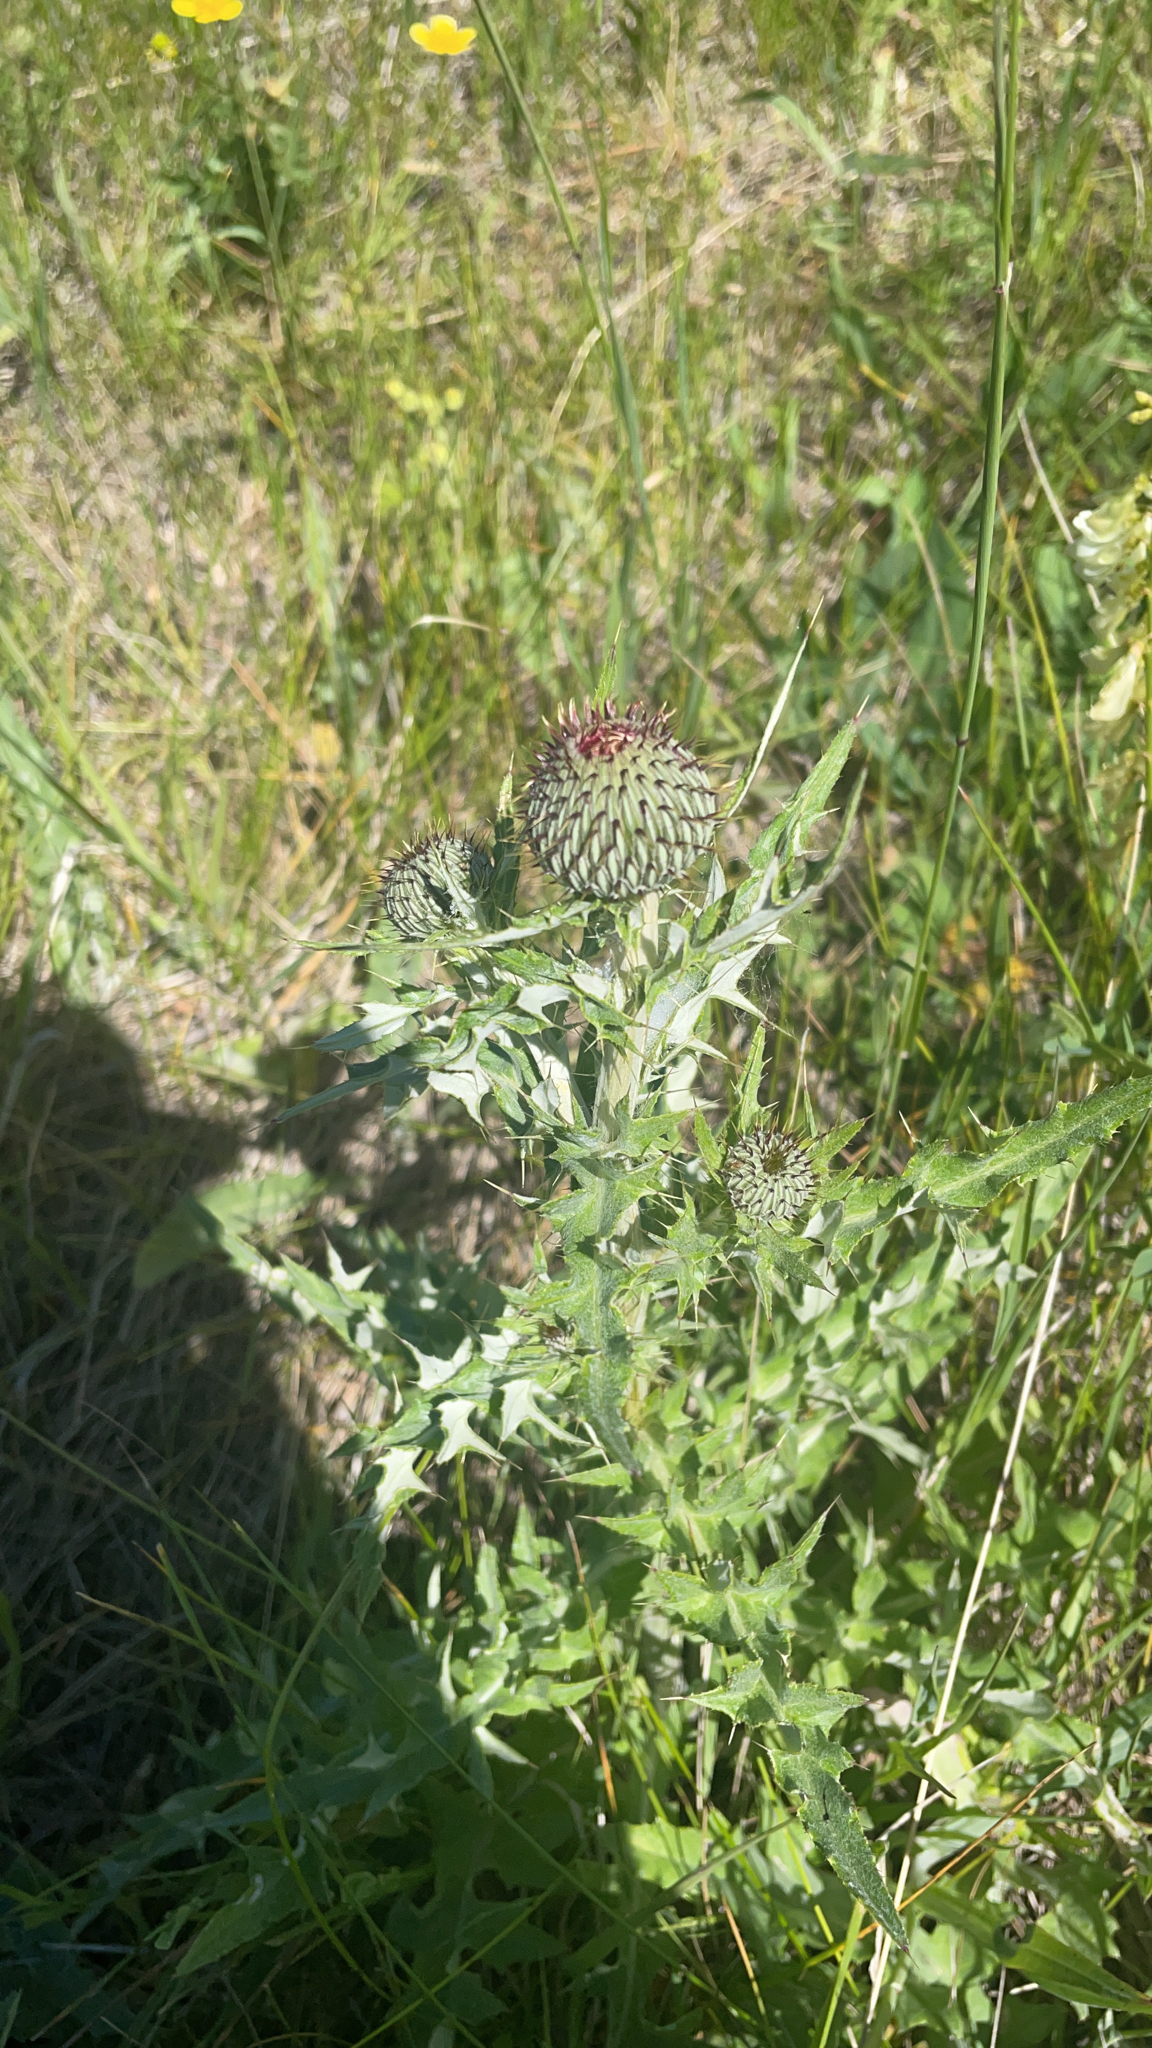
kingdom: Plantae
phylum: Tracheophyta
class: Magnoliopsida
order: Asterales
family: Asteraceae
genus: Cirsium
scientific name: Cirsium undulatum
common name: Pasture thistle
